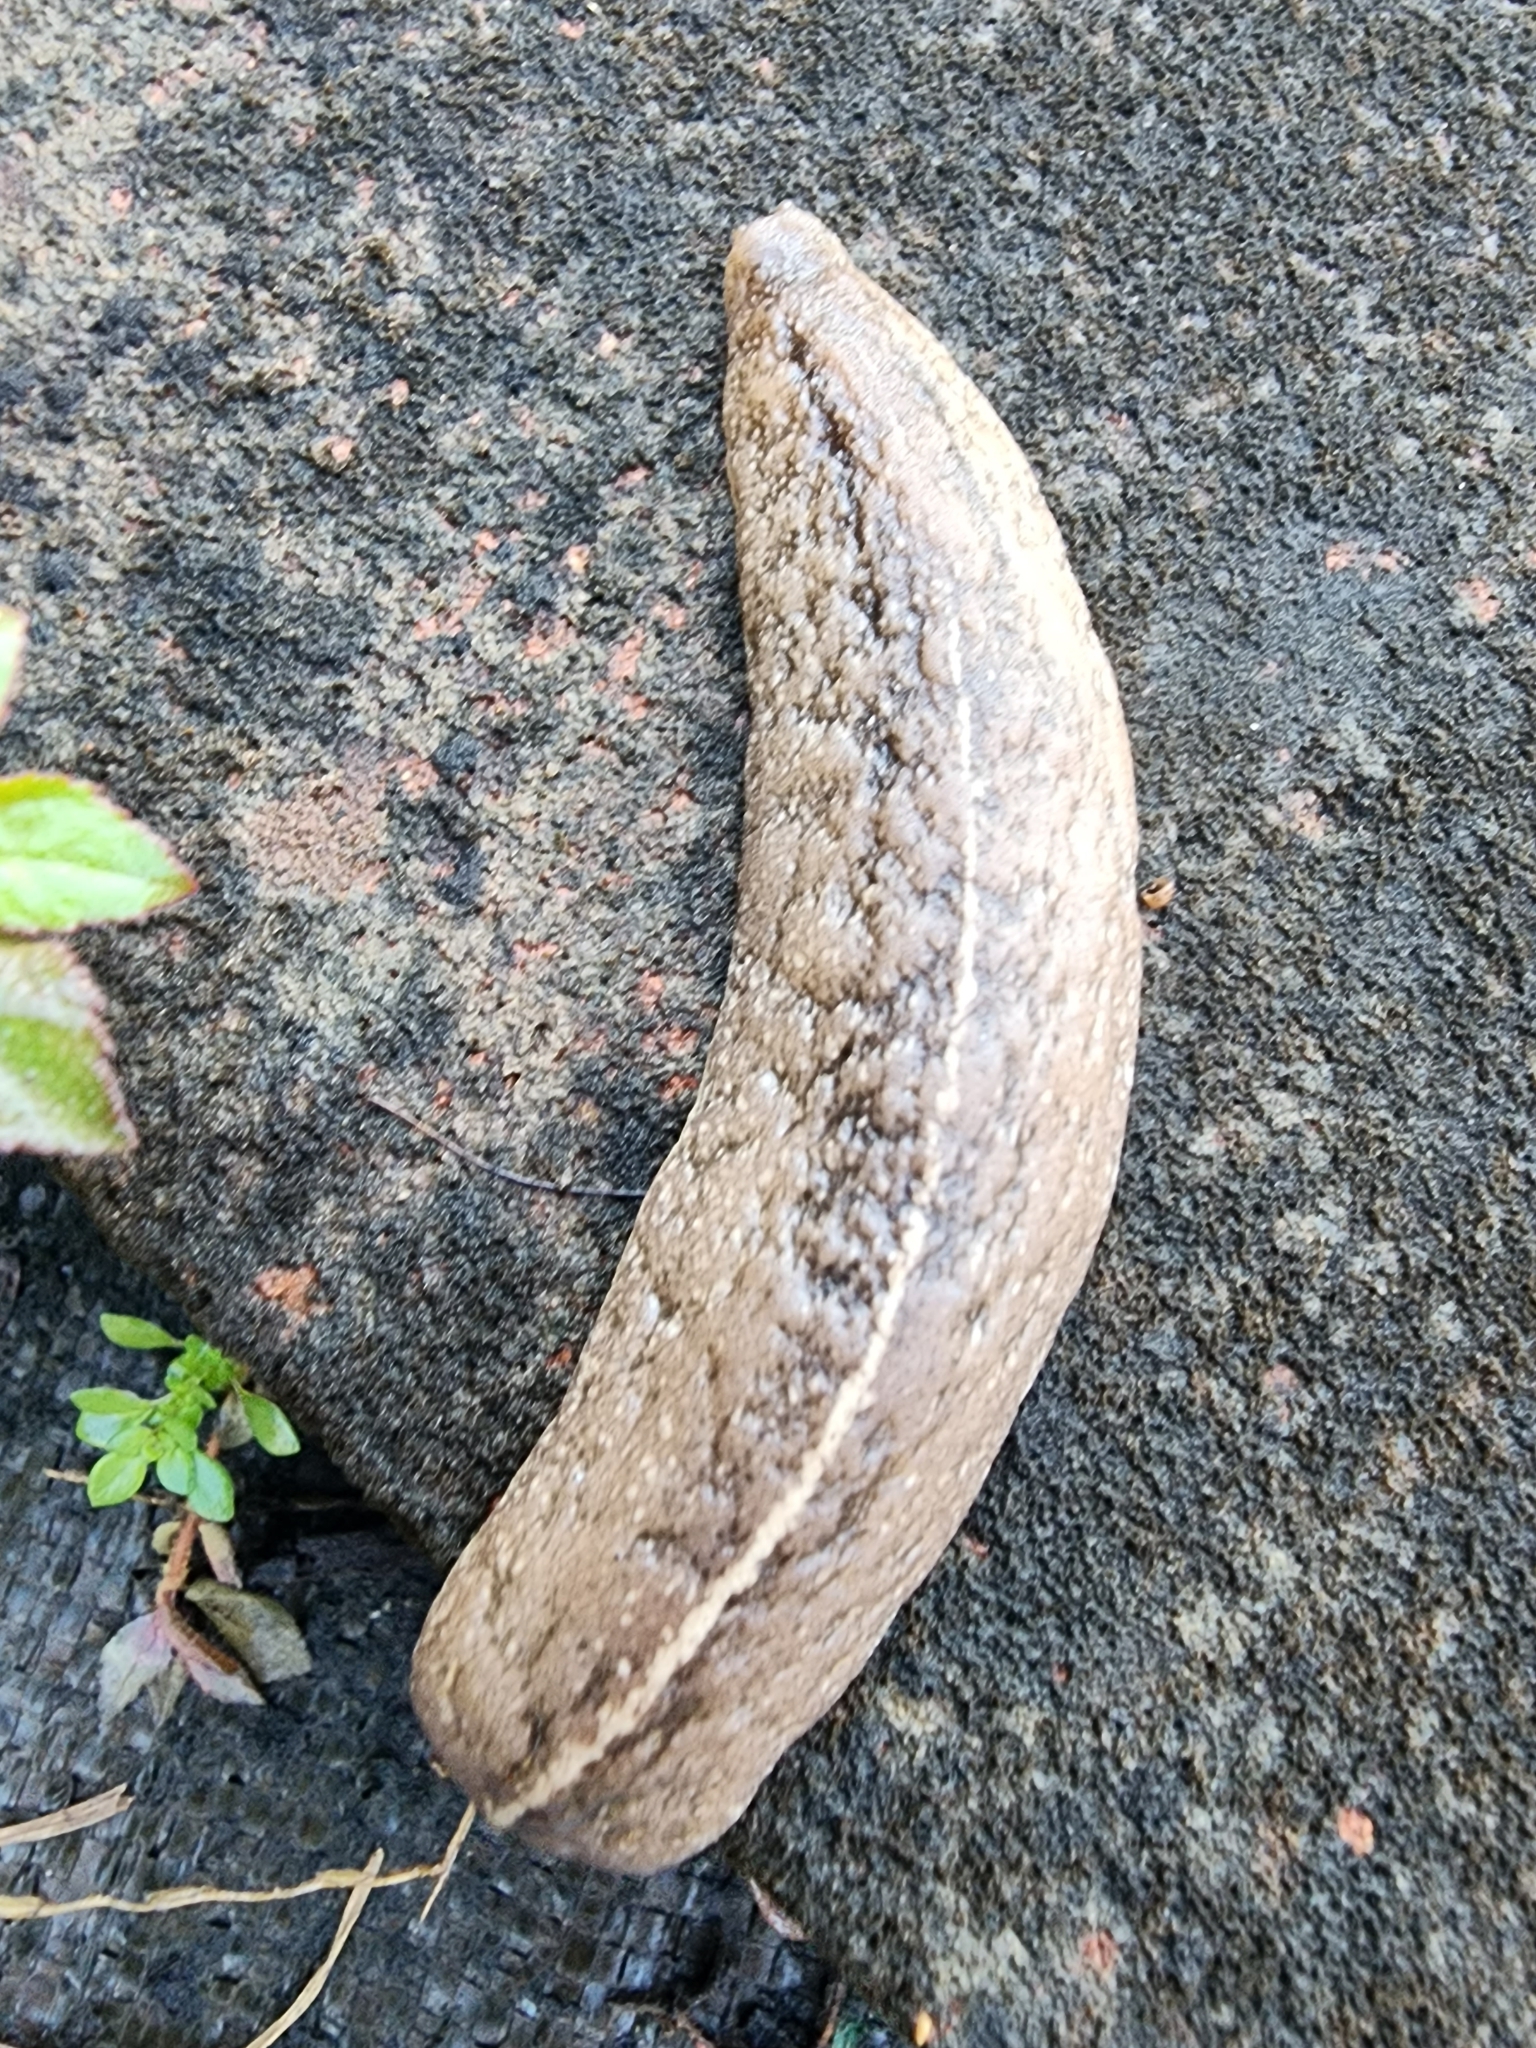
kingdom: Animalia
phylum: Mollusca
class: Gastropoda
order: Systellommatophora
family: Veronicellidae
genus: Leidyula
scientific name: Leidyula floridana
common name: Florida leatherleaf
